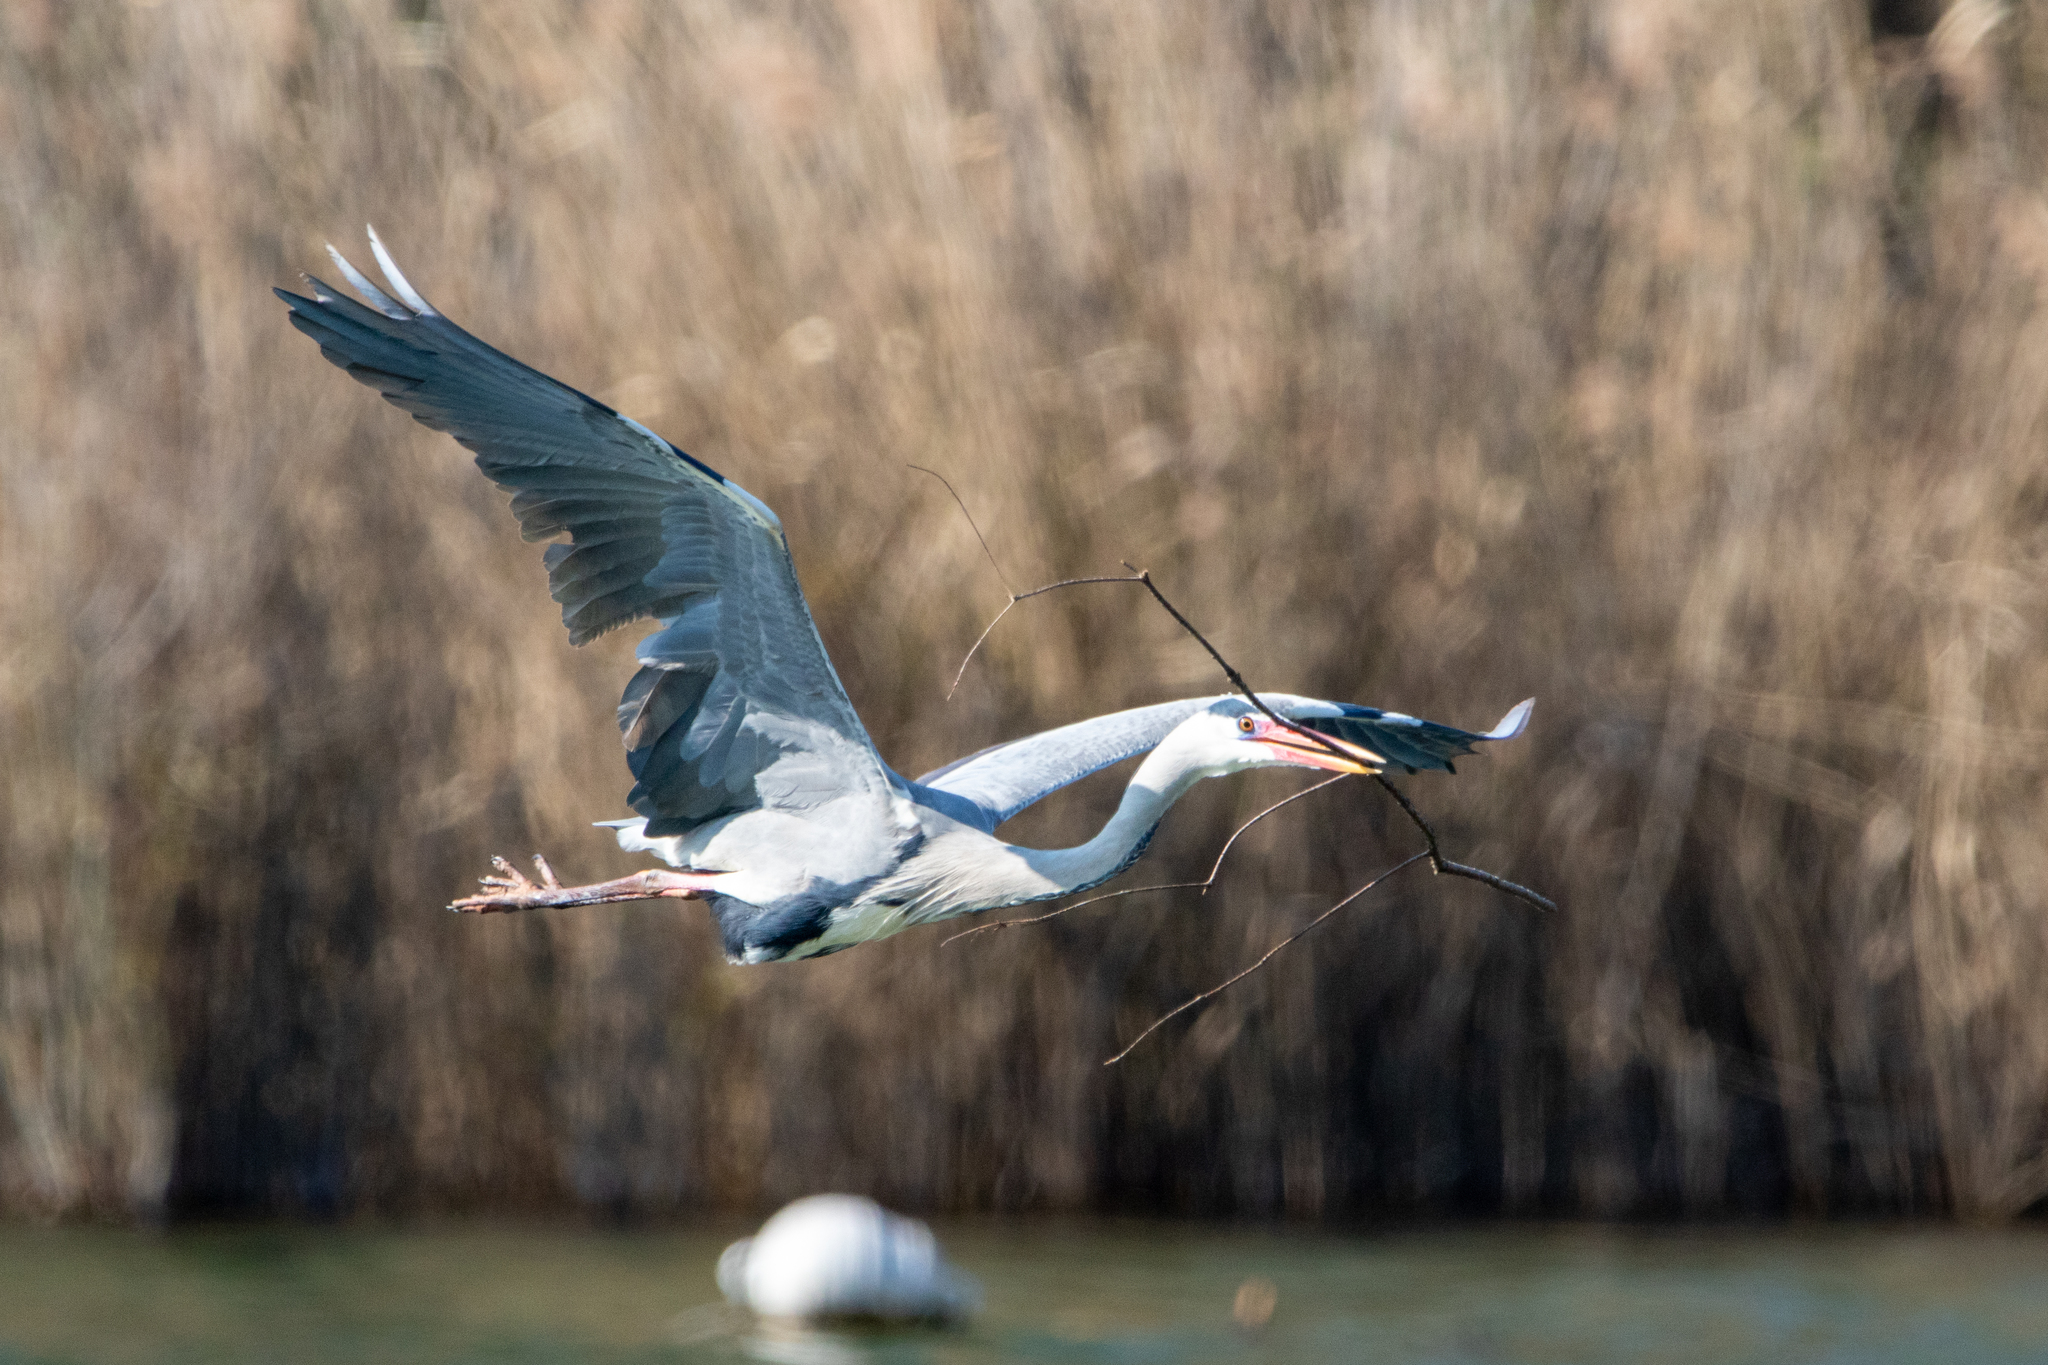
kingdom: Animalia
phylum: Chordata
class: Aves
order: Pelecaniformes
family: Ardeidae
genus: Ardea
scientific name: Ardea cinerea
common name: Grey heron
